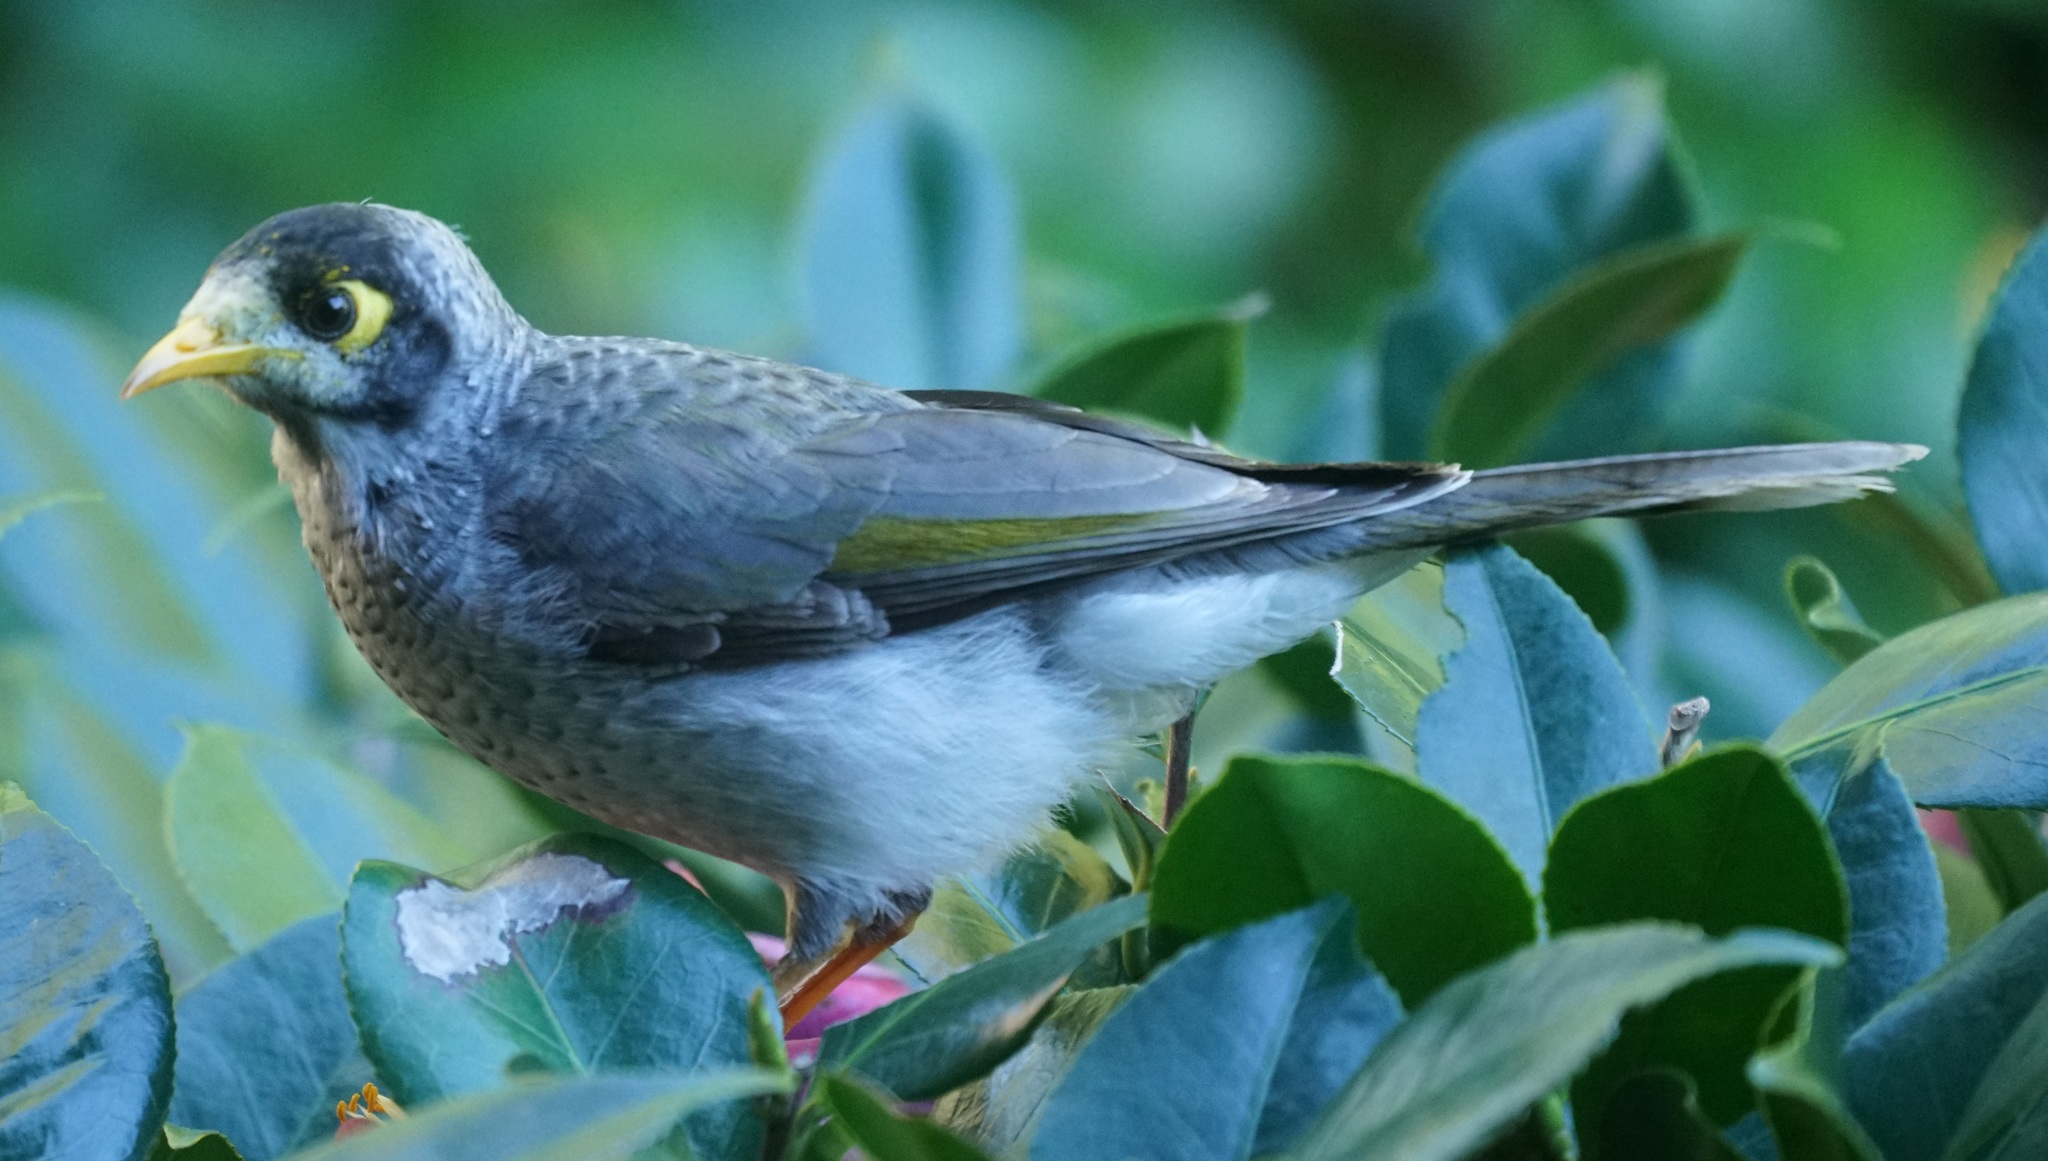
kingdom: Animalia
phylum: Chordata
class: Aves
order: Passeriformes
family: Meliphagidae
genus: Manorina
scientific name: Manorina melanocephala
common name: Noisy miner
